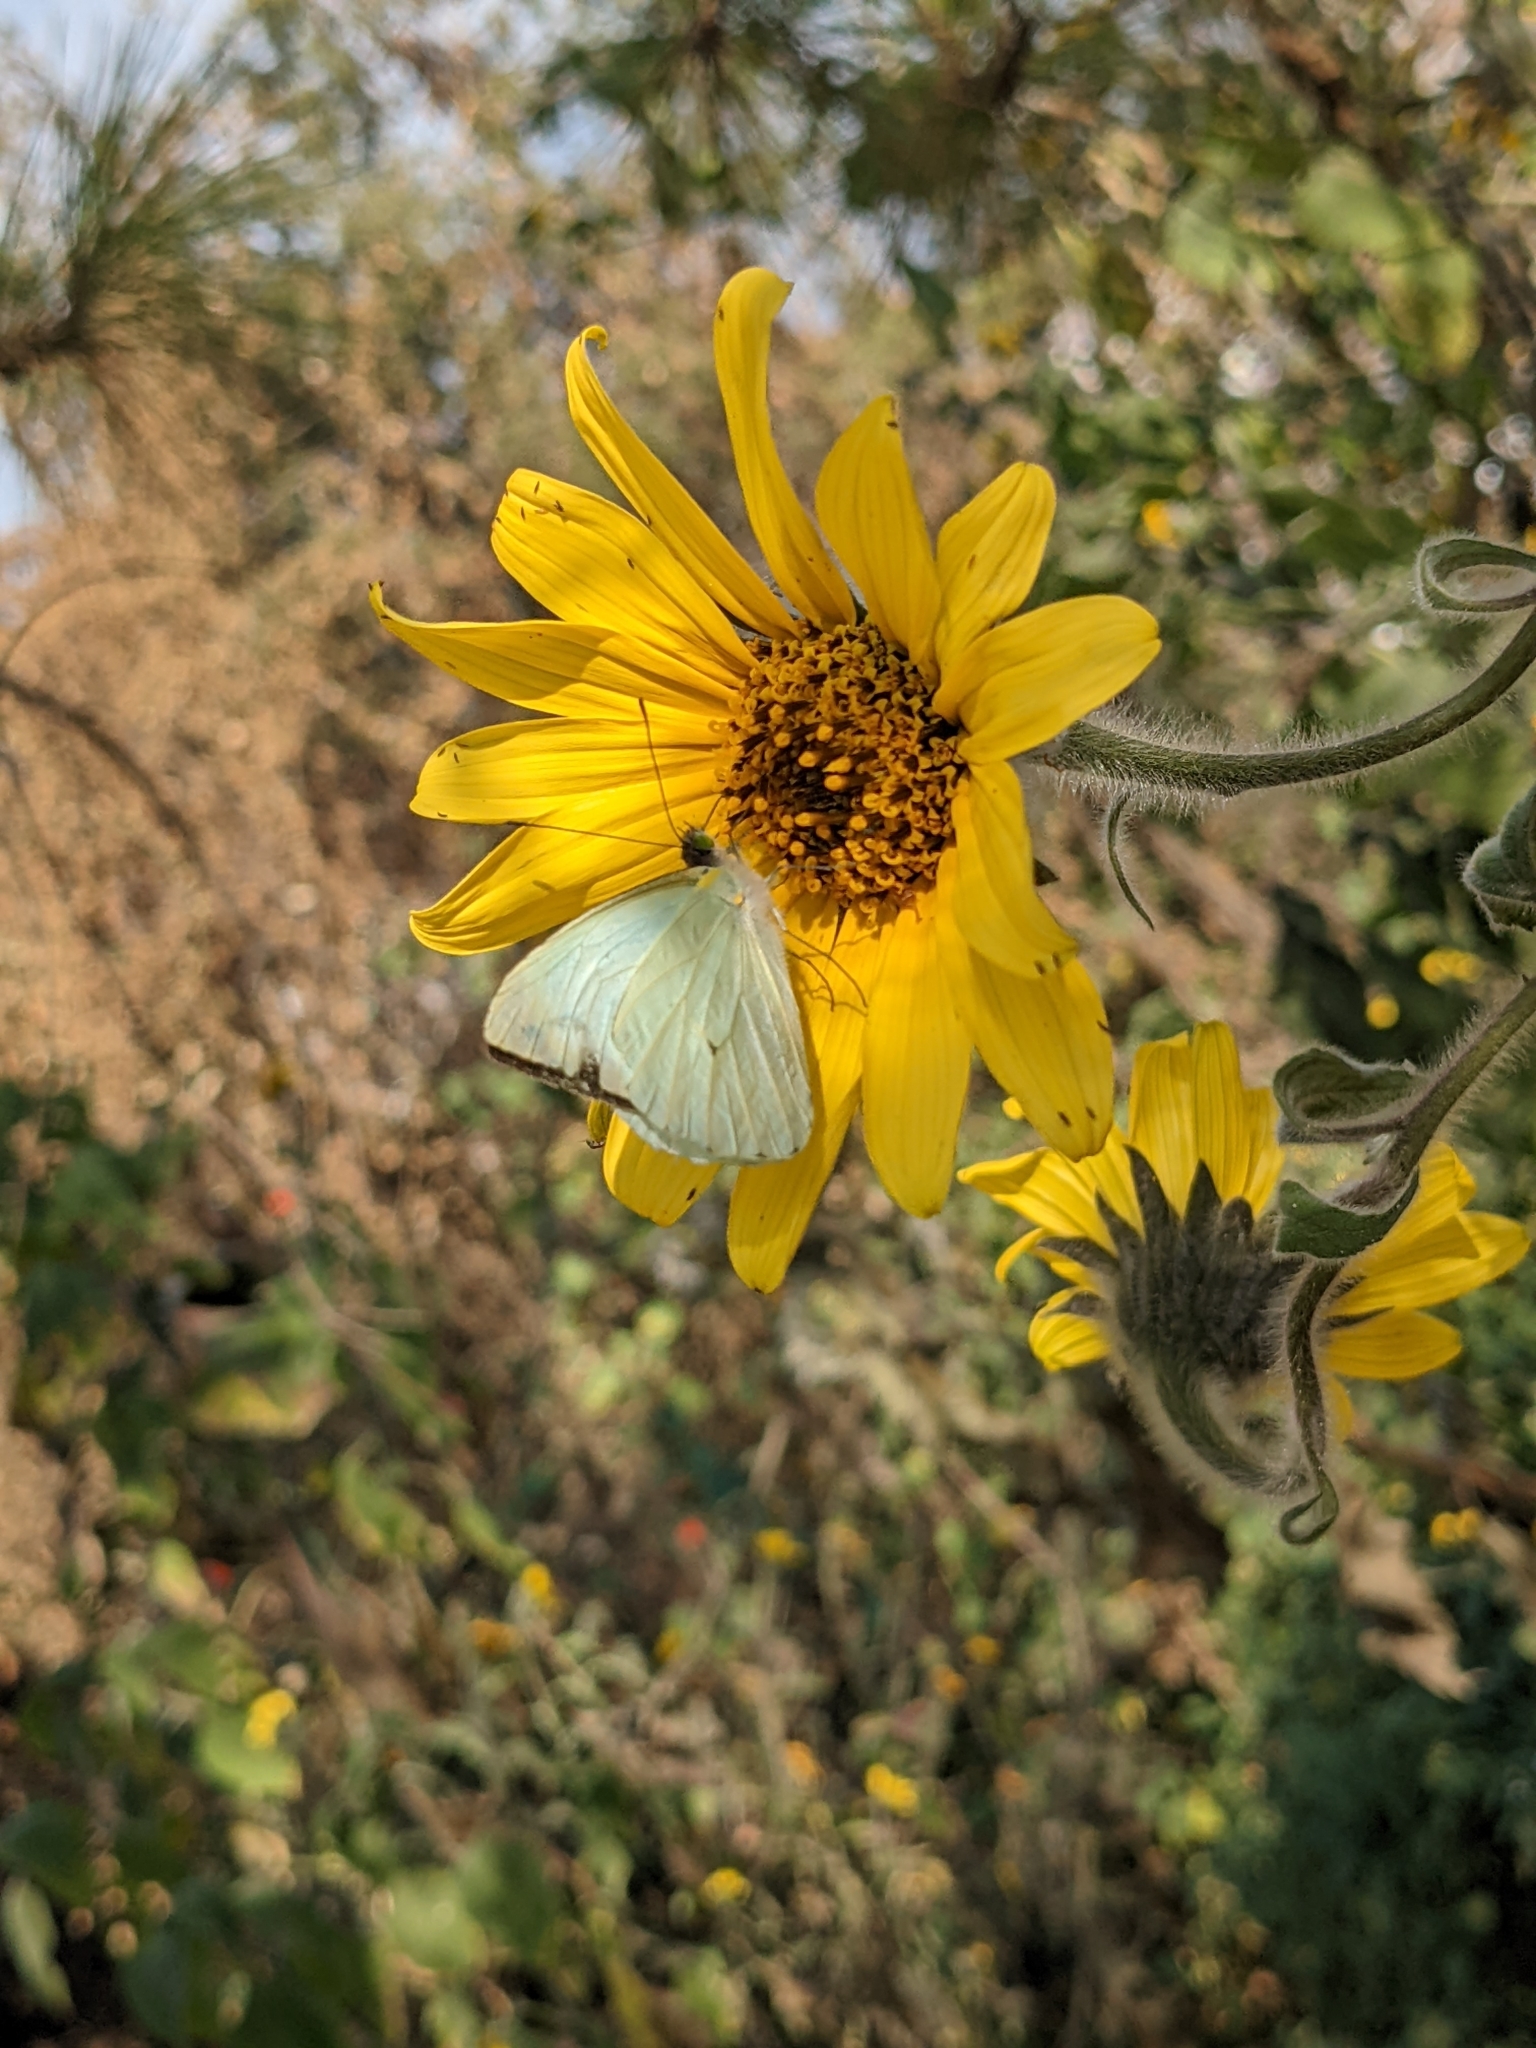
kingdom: Animalia
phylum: Arthropoda
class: Insecta
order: Lepidoptera
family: Pieridae
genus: Leptophobia
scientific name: Leptophobia aripa
